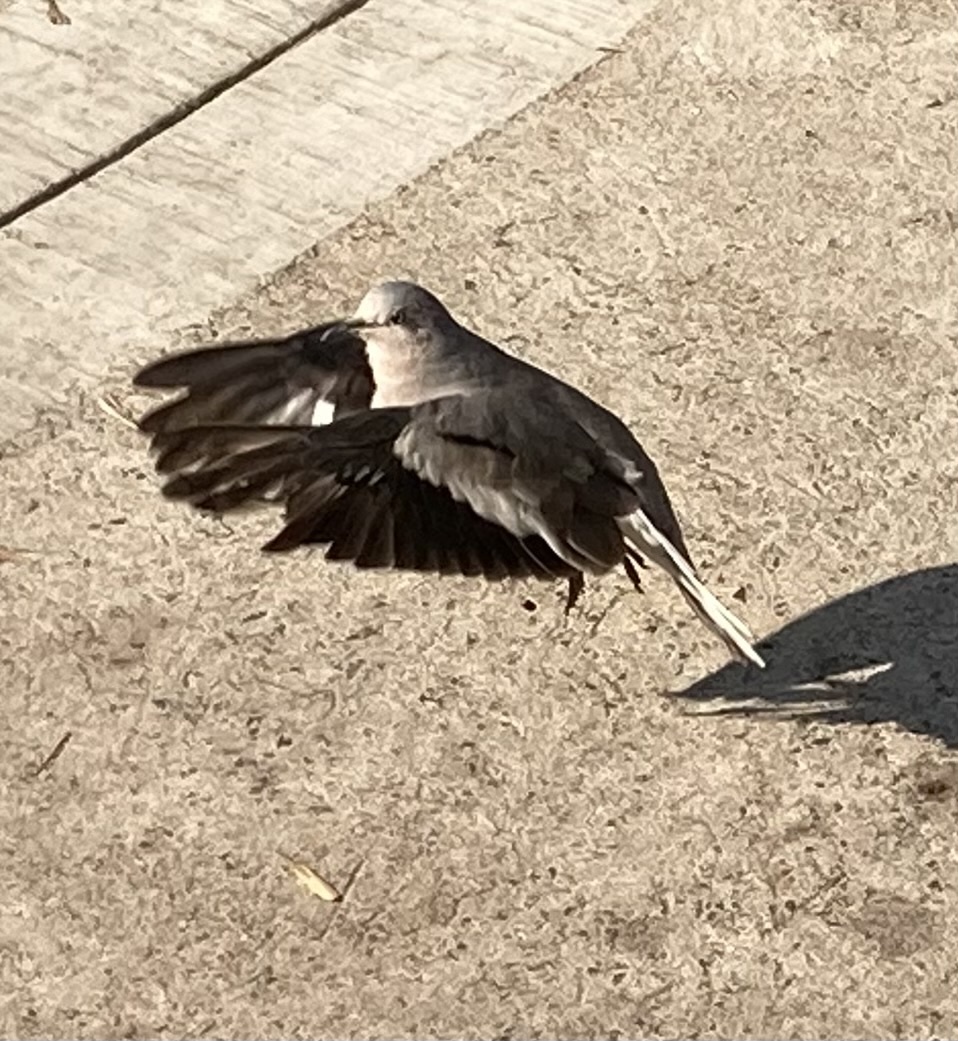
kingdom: Animalia
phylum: Chordata
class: Aves
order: Columbiformes
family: Columbidae
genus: Columbina
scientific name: Columbina picui
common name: Picui ground dove
